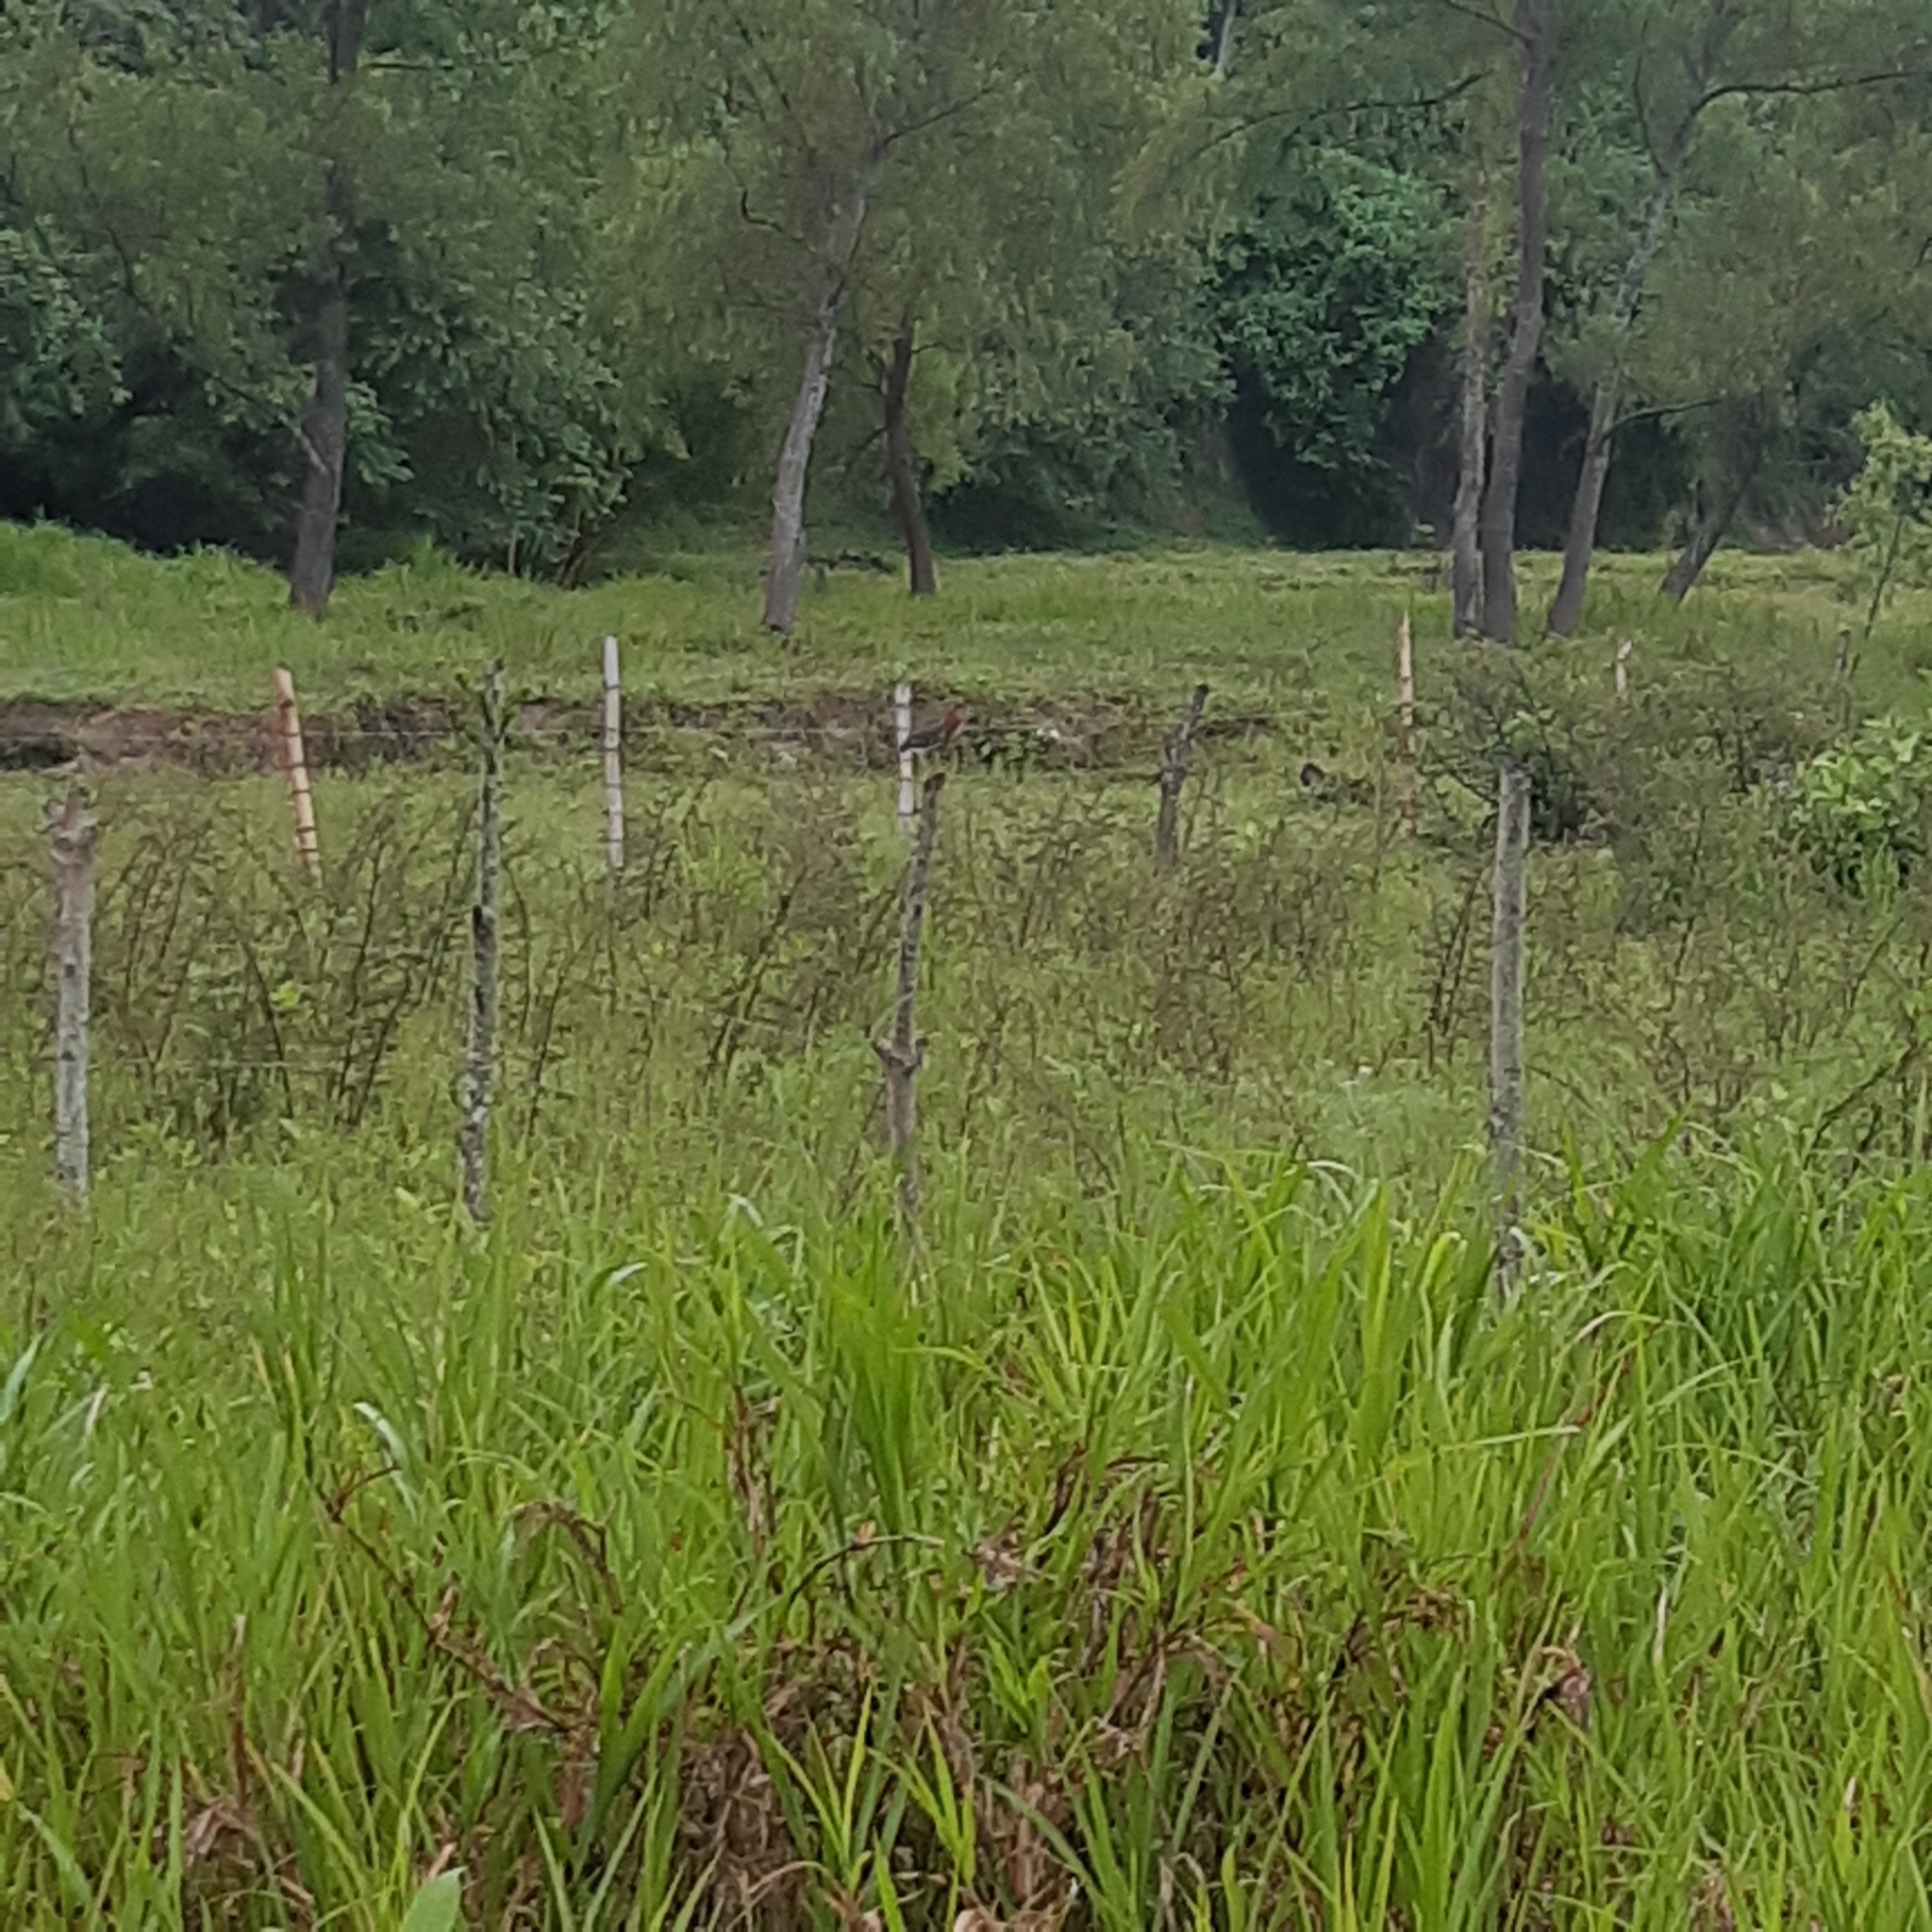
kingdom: Animalia
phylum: Chordata
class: Aves
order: Pelecaniformes
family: Ardeidae
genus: Butorides
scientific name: Butorides virescens
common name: Green heron
